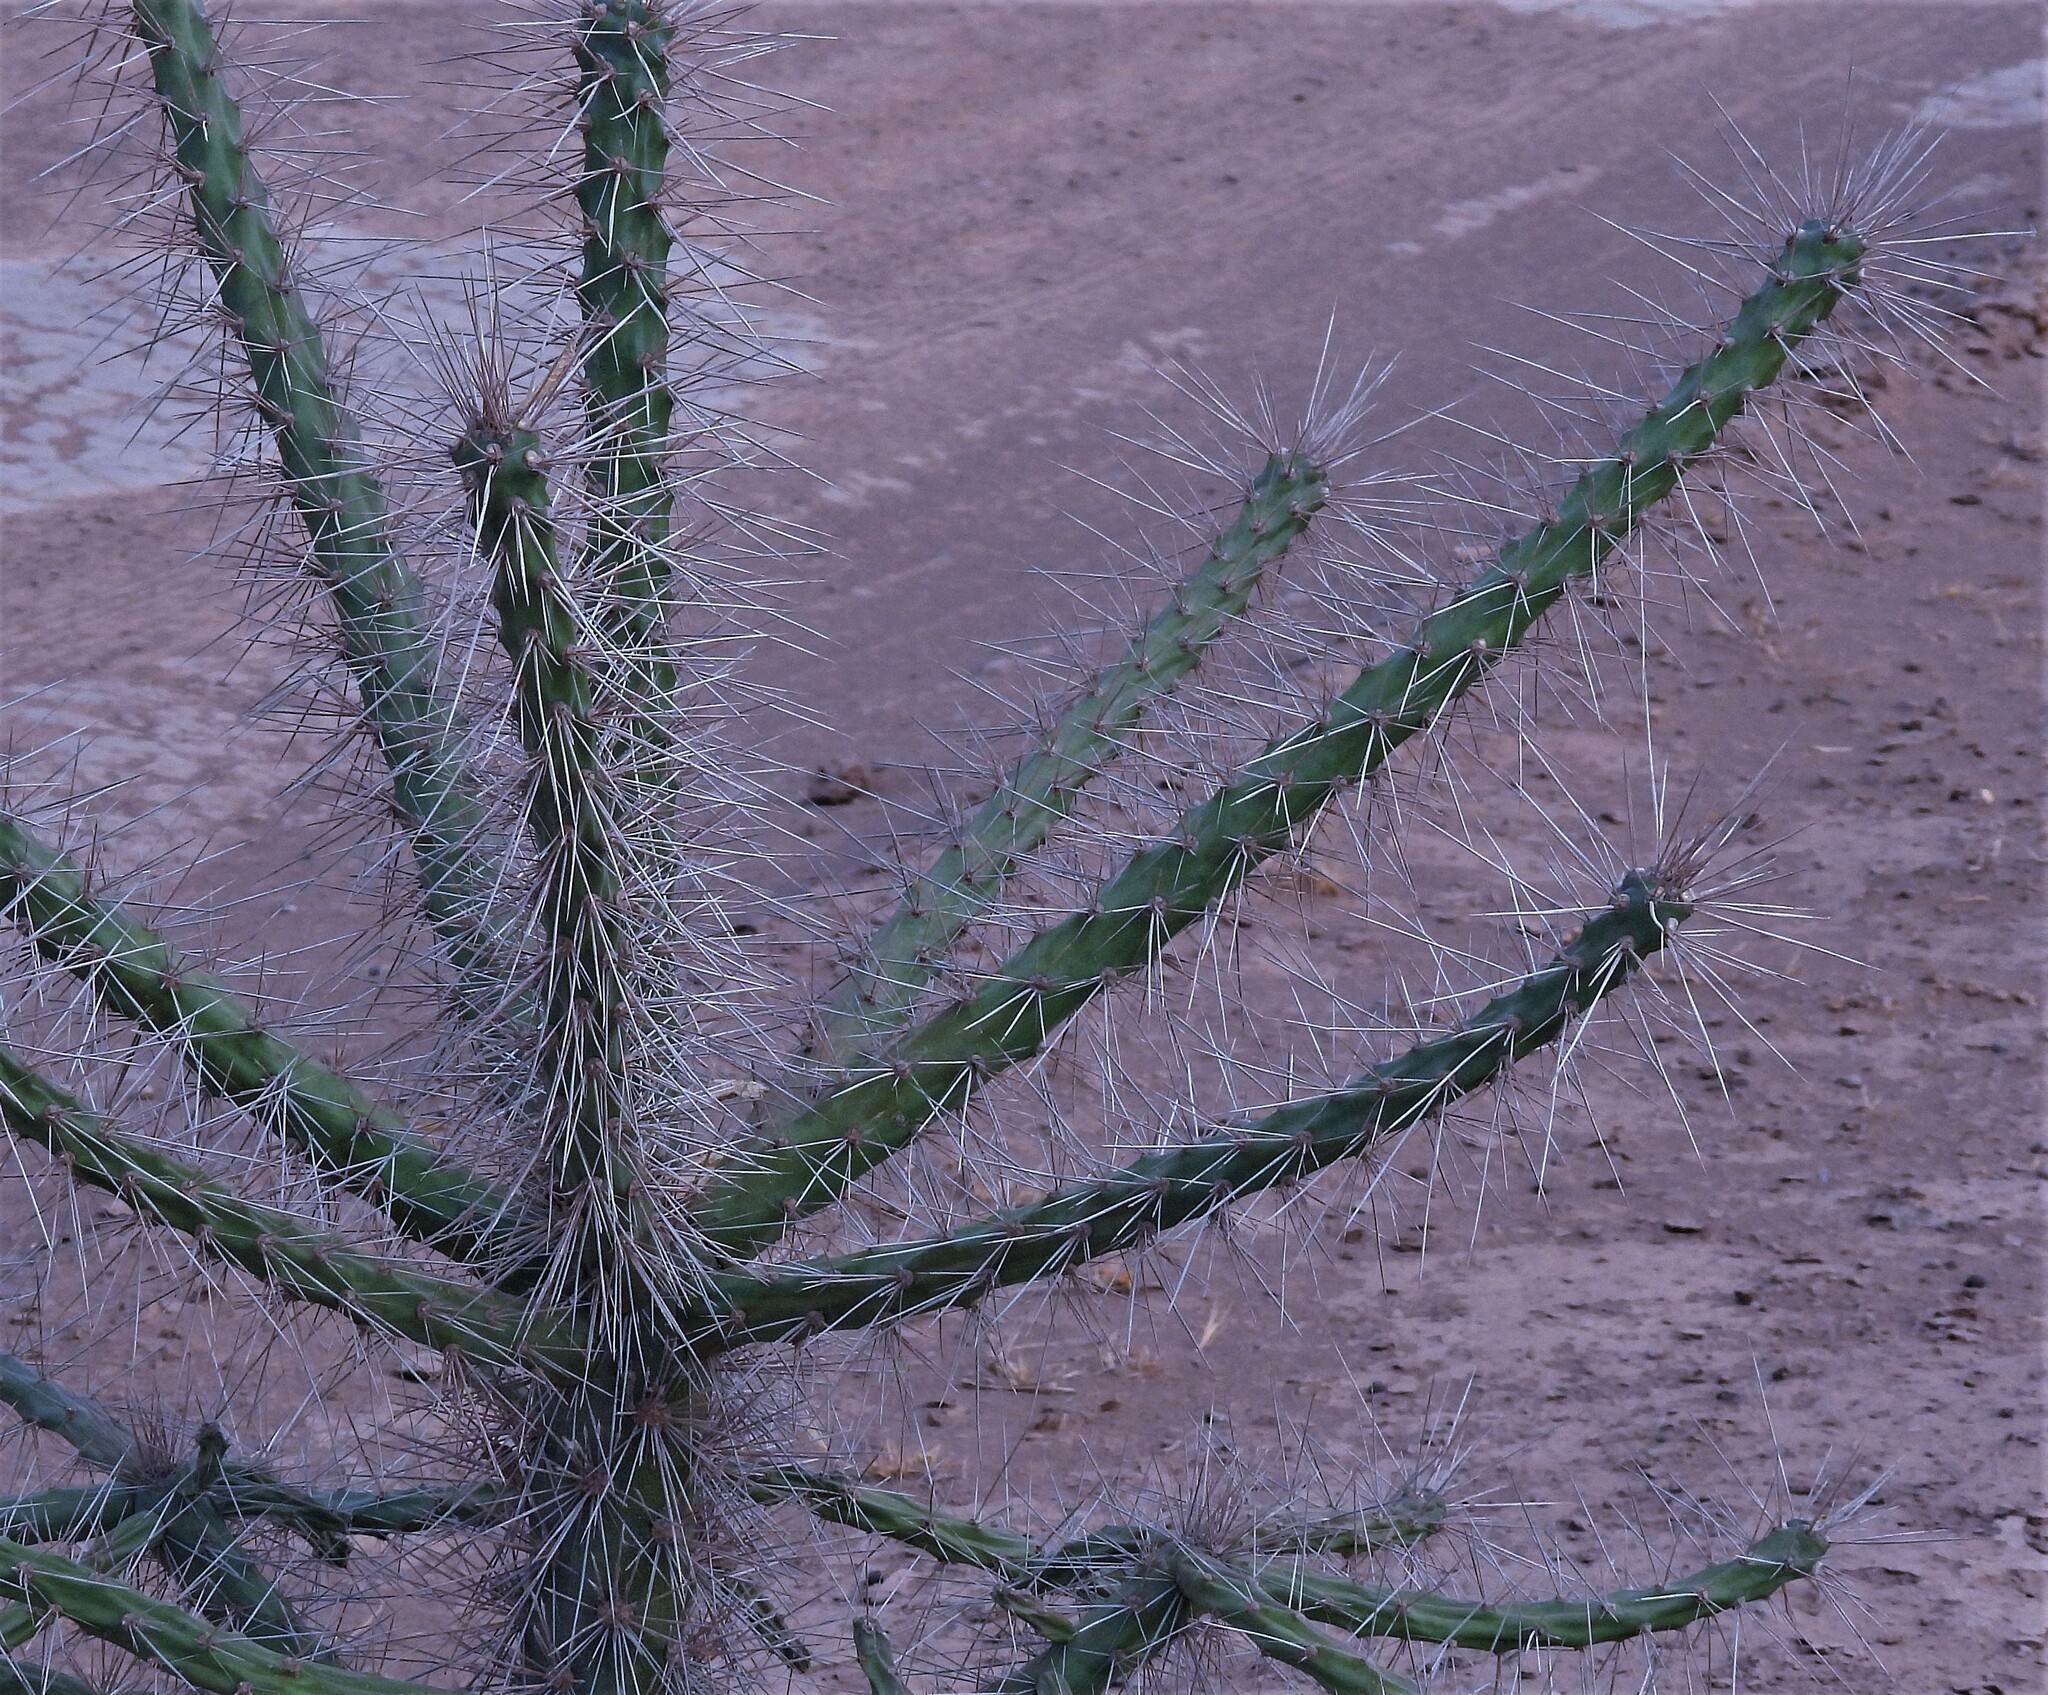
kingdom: Plantae
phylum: Tracheophyta
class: Magnoliopsida
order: Caryophyllales
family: Cactaceae
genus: Quiabentia
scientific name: Quiabentia verticillata
